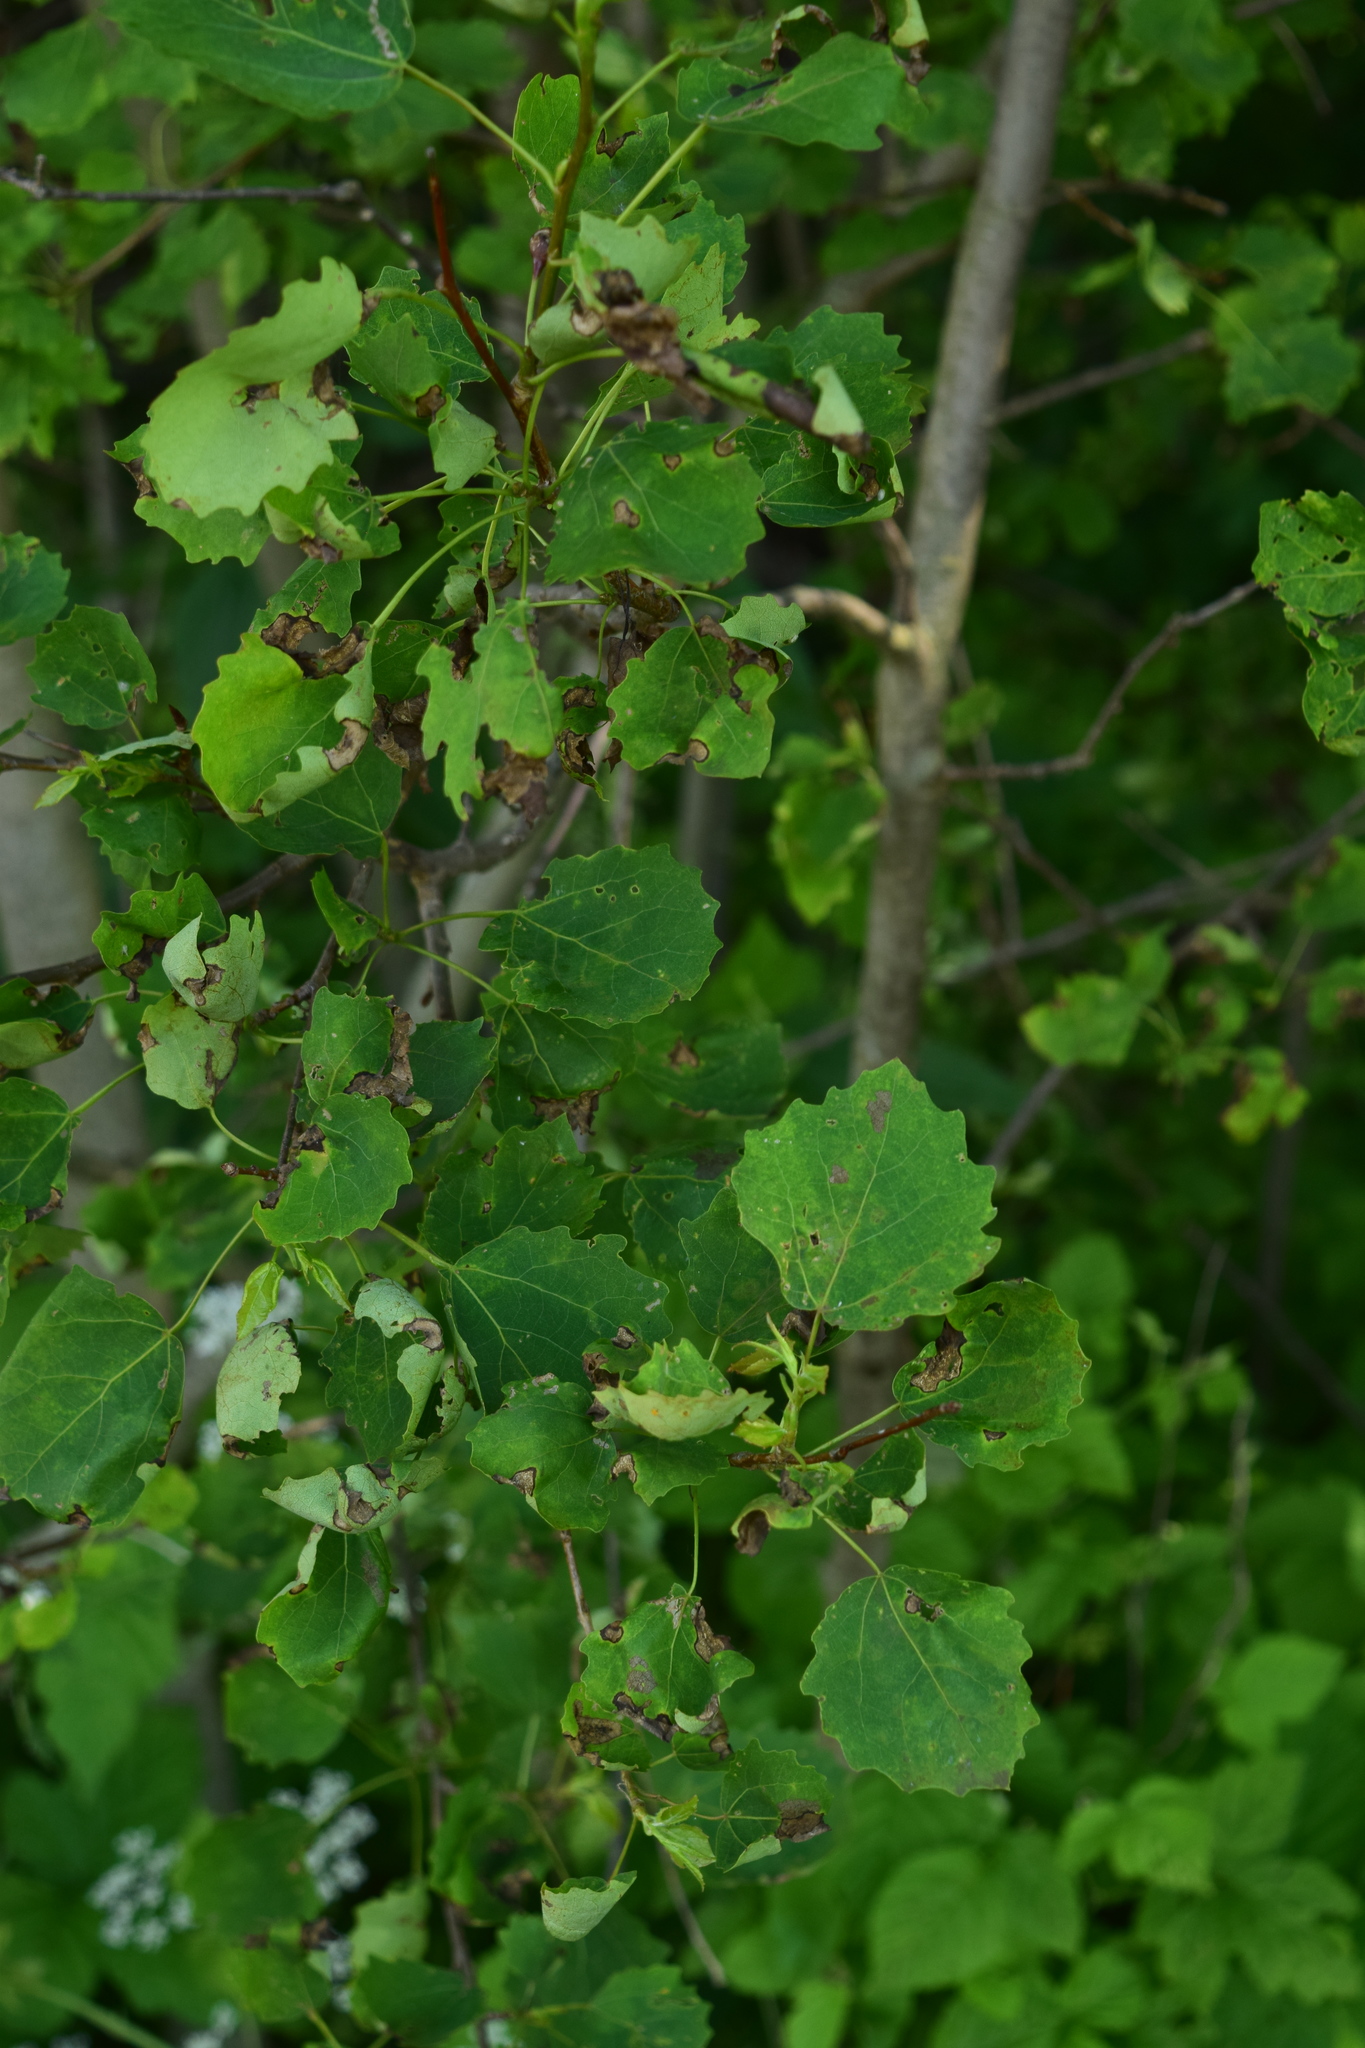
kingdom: Plantae
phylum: Tracheophyta
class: Magnoliopsida
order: Malpighiales
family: Salicaceae
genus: Populus
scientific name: Populus tremula
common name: European aspen
